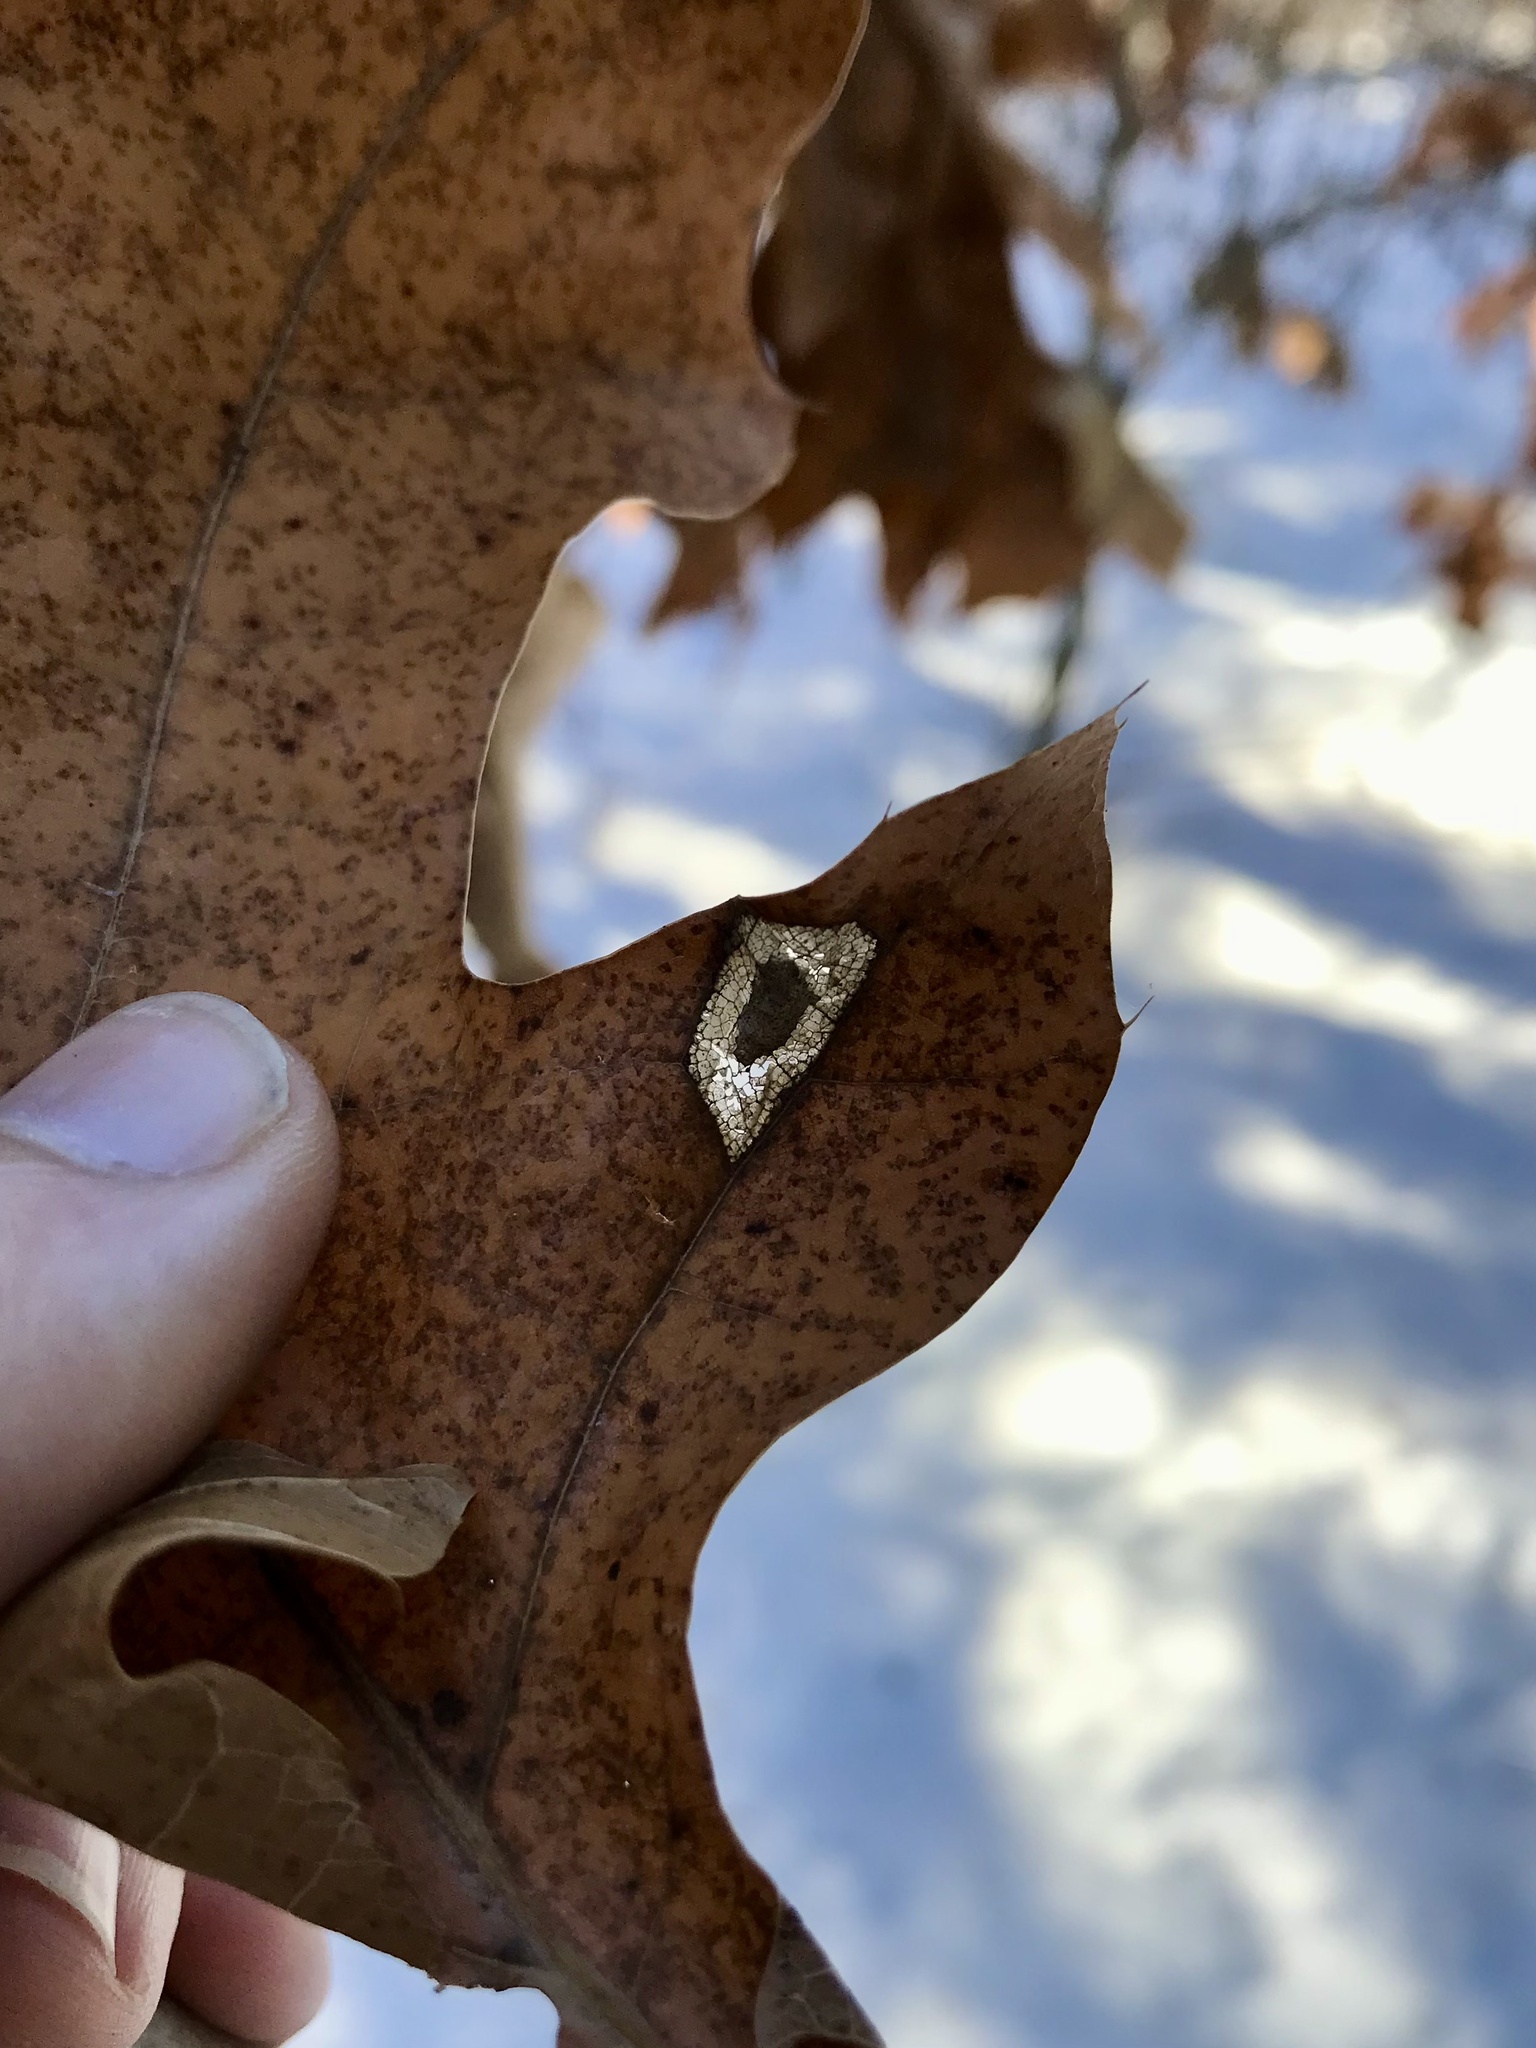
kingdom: Animalia
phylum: Arthropoda
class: Insecta
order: Lepidoptera
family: Gracillariidae
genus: Phyllonorycter
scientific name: Phyllonorycter basistrigella
